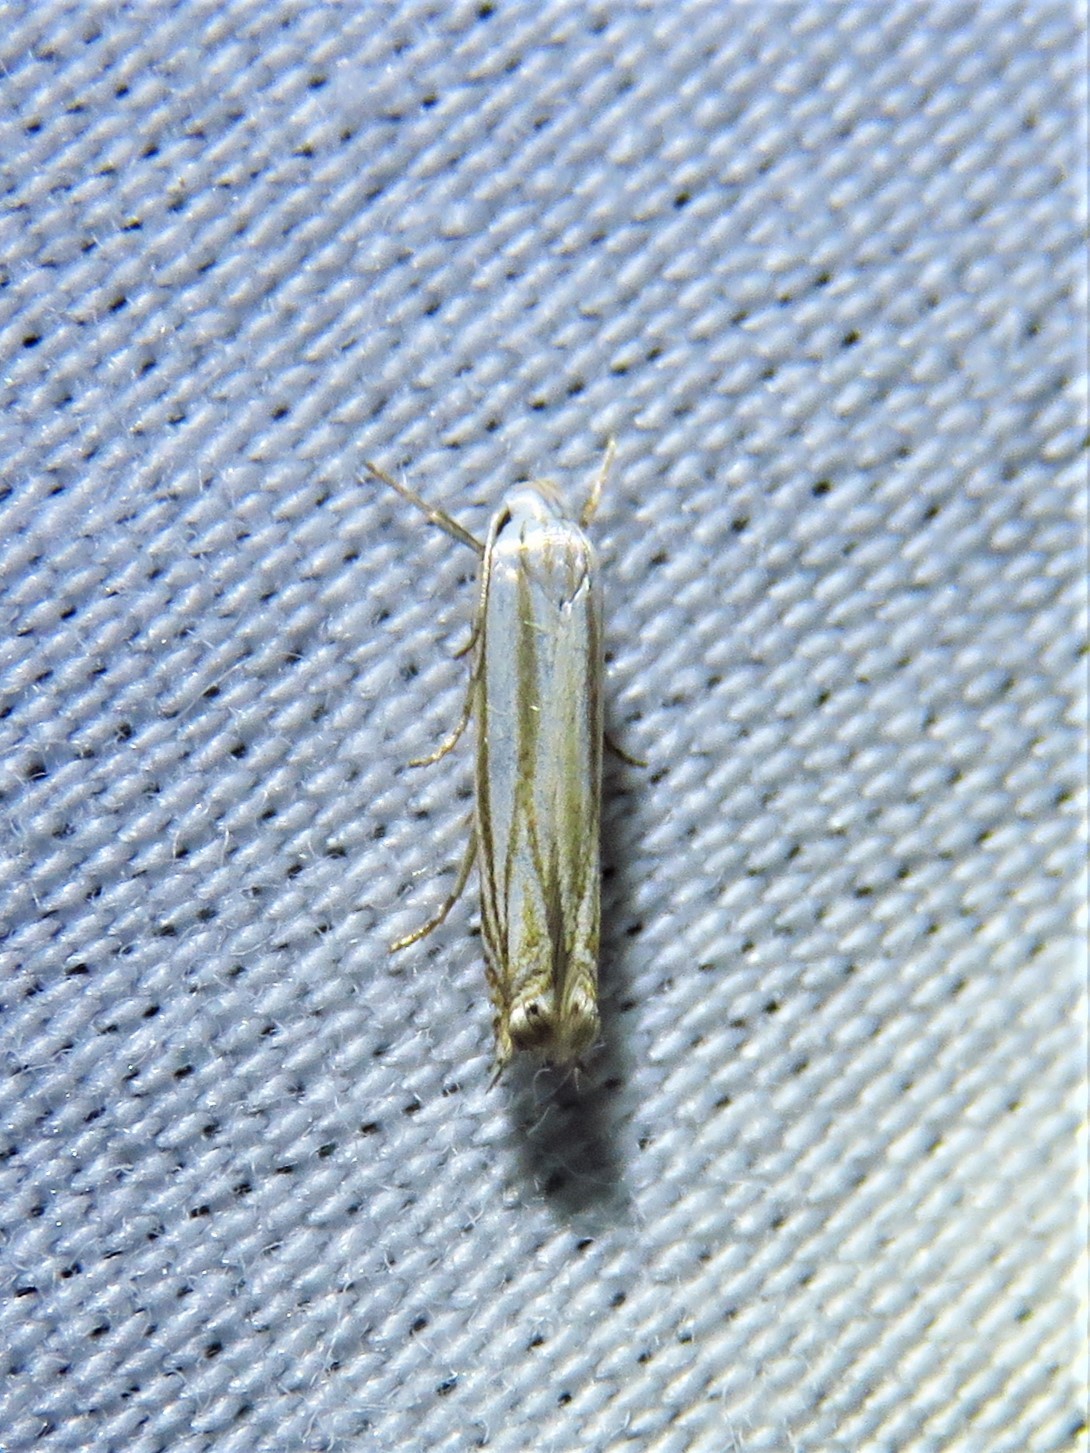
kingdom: Animalia
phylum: Arthropoda
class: Insecta
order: Lepidoptera
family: Gelechiidae
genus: Polyhymno
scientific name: Polyhymno luteostrigella
